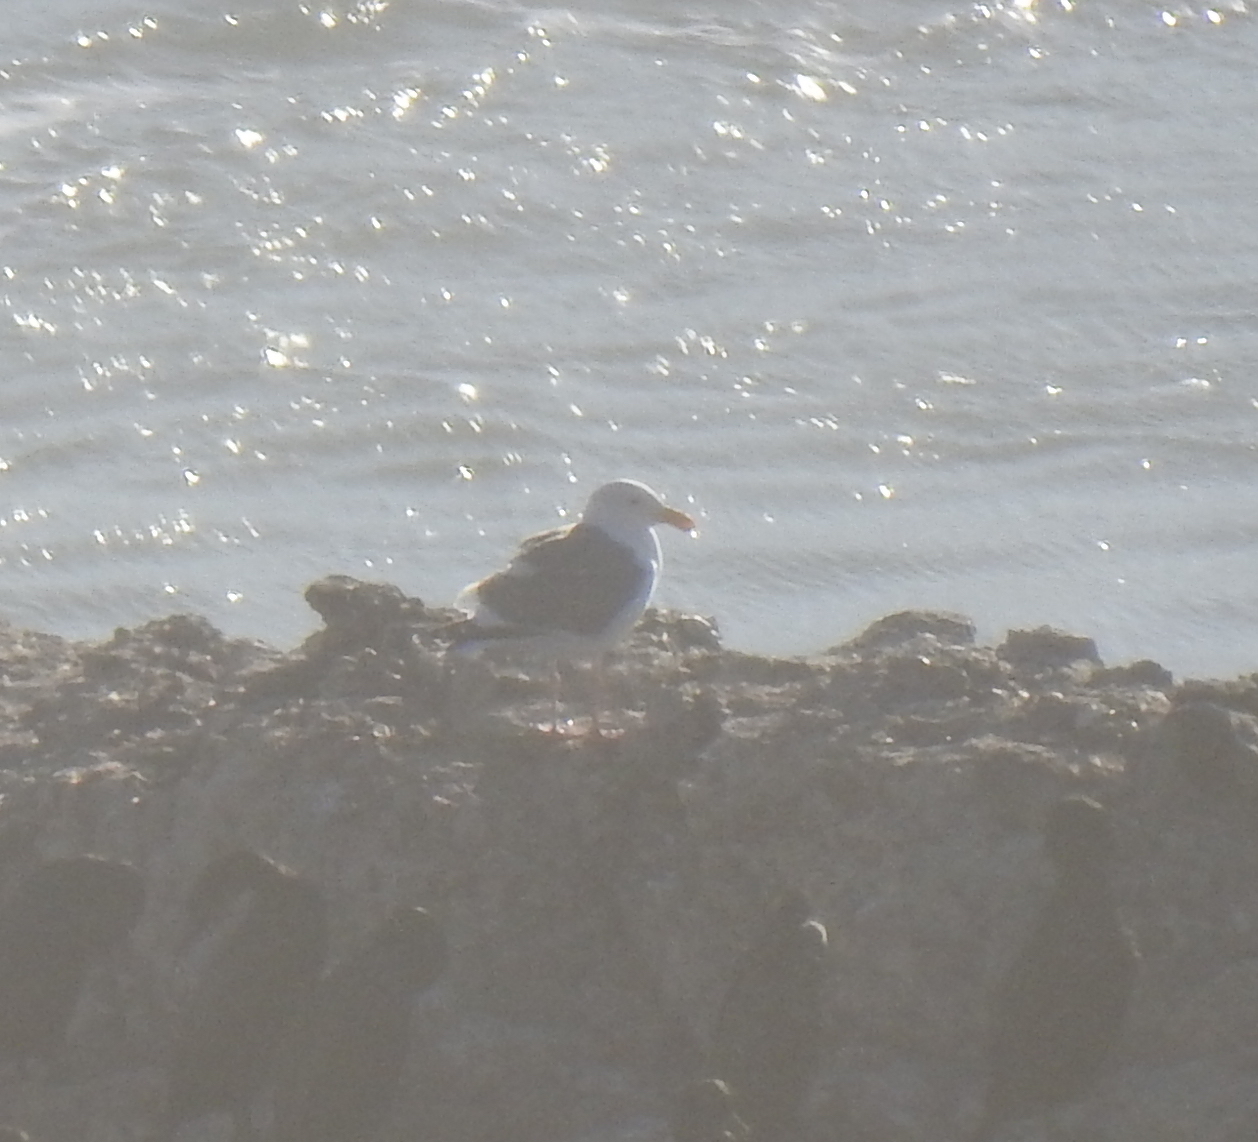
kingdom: Animalia
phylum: Chordata
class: Aves
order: Charadriiformes
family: Laridae
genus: Larus
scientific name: Larus occidentalis
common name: Western gull
